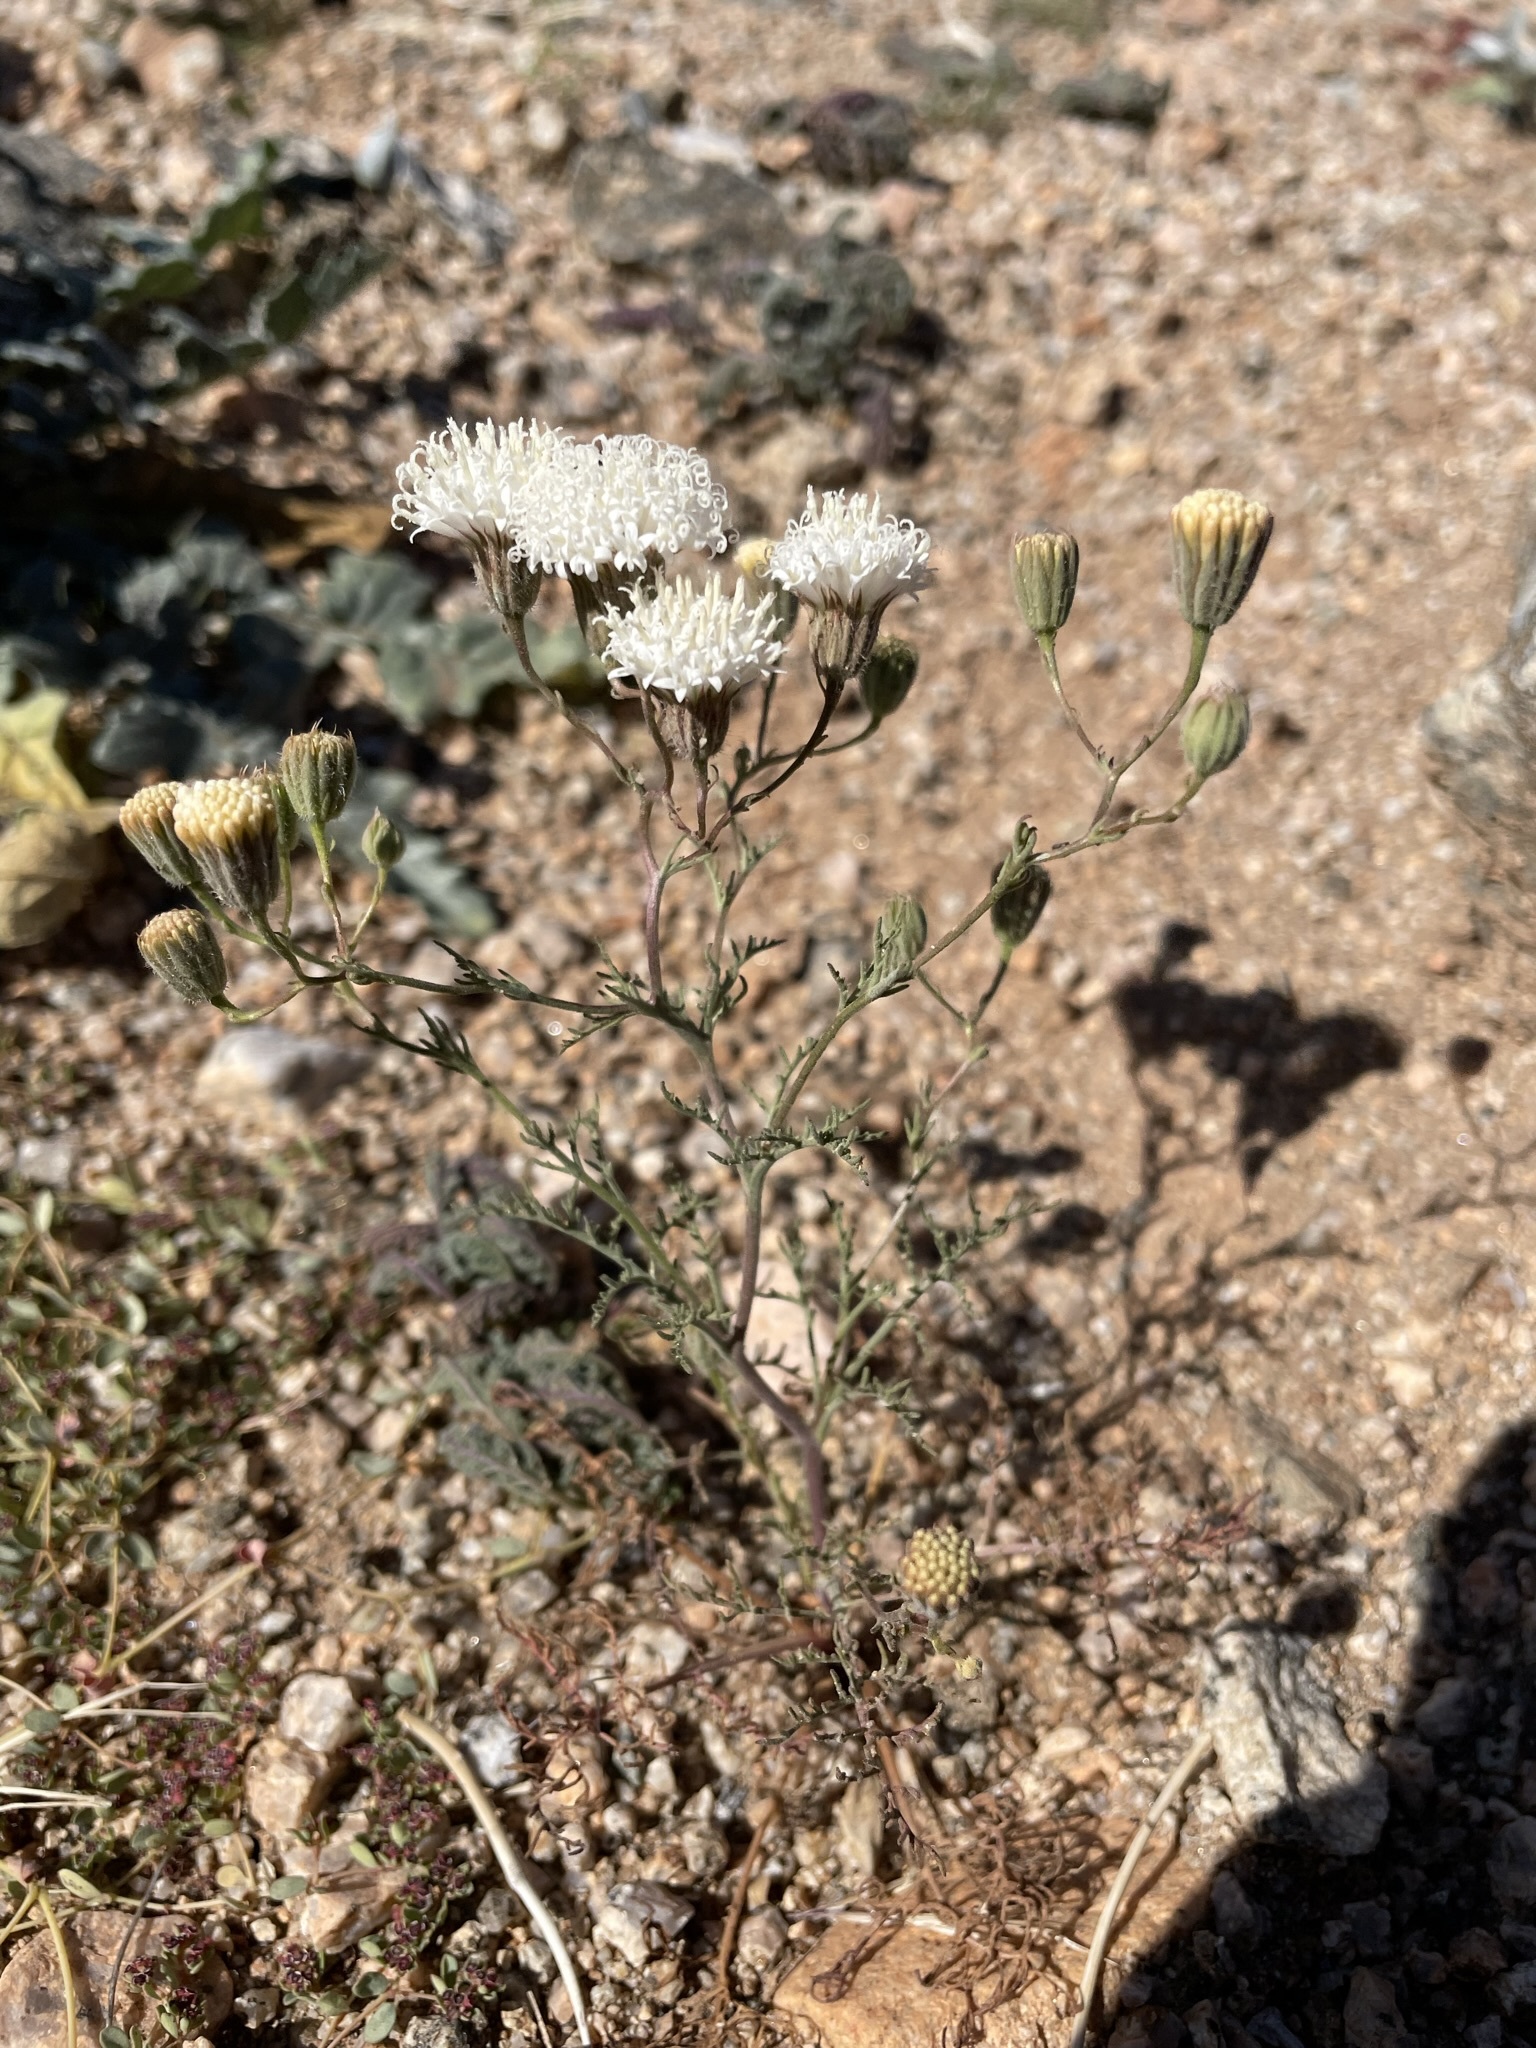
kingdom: Plantae
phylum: Tracheophyta
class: Magnoliopsida
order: Asterales
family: Asteraceae
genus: Chaenactis
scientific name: Chaenactis carphoclinia
